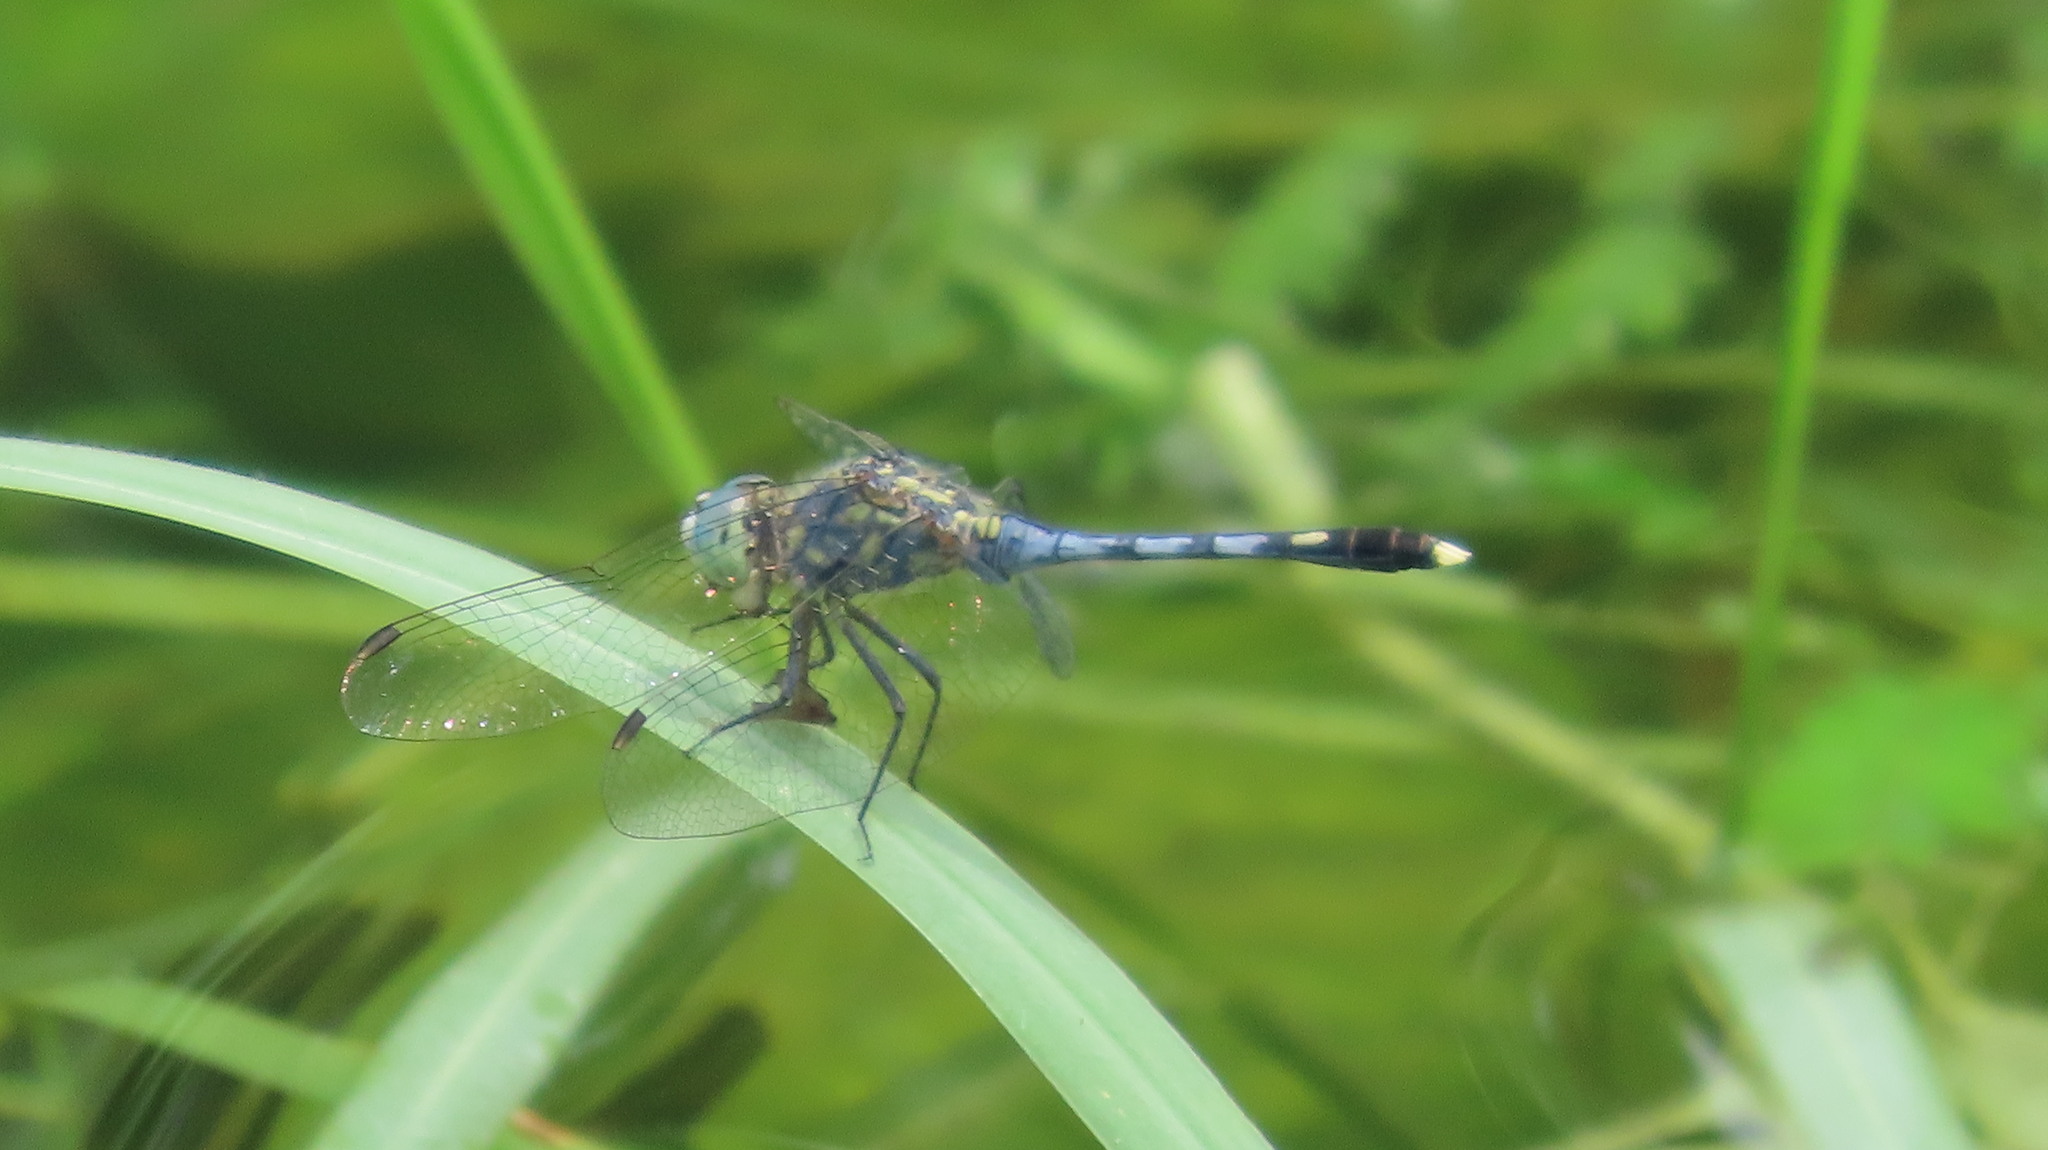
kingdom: Animalia
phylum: Arthropoda
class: Insecta
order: Odonata
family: Libellulidae
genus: Diplacodes
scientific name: Diplacodes trivialis
